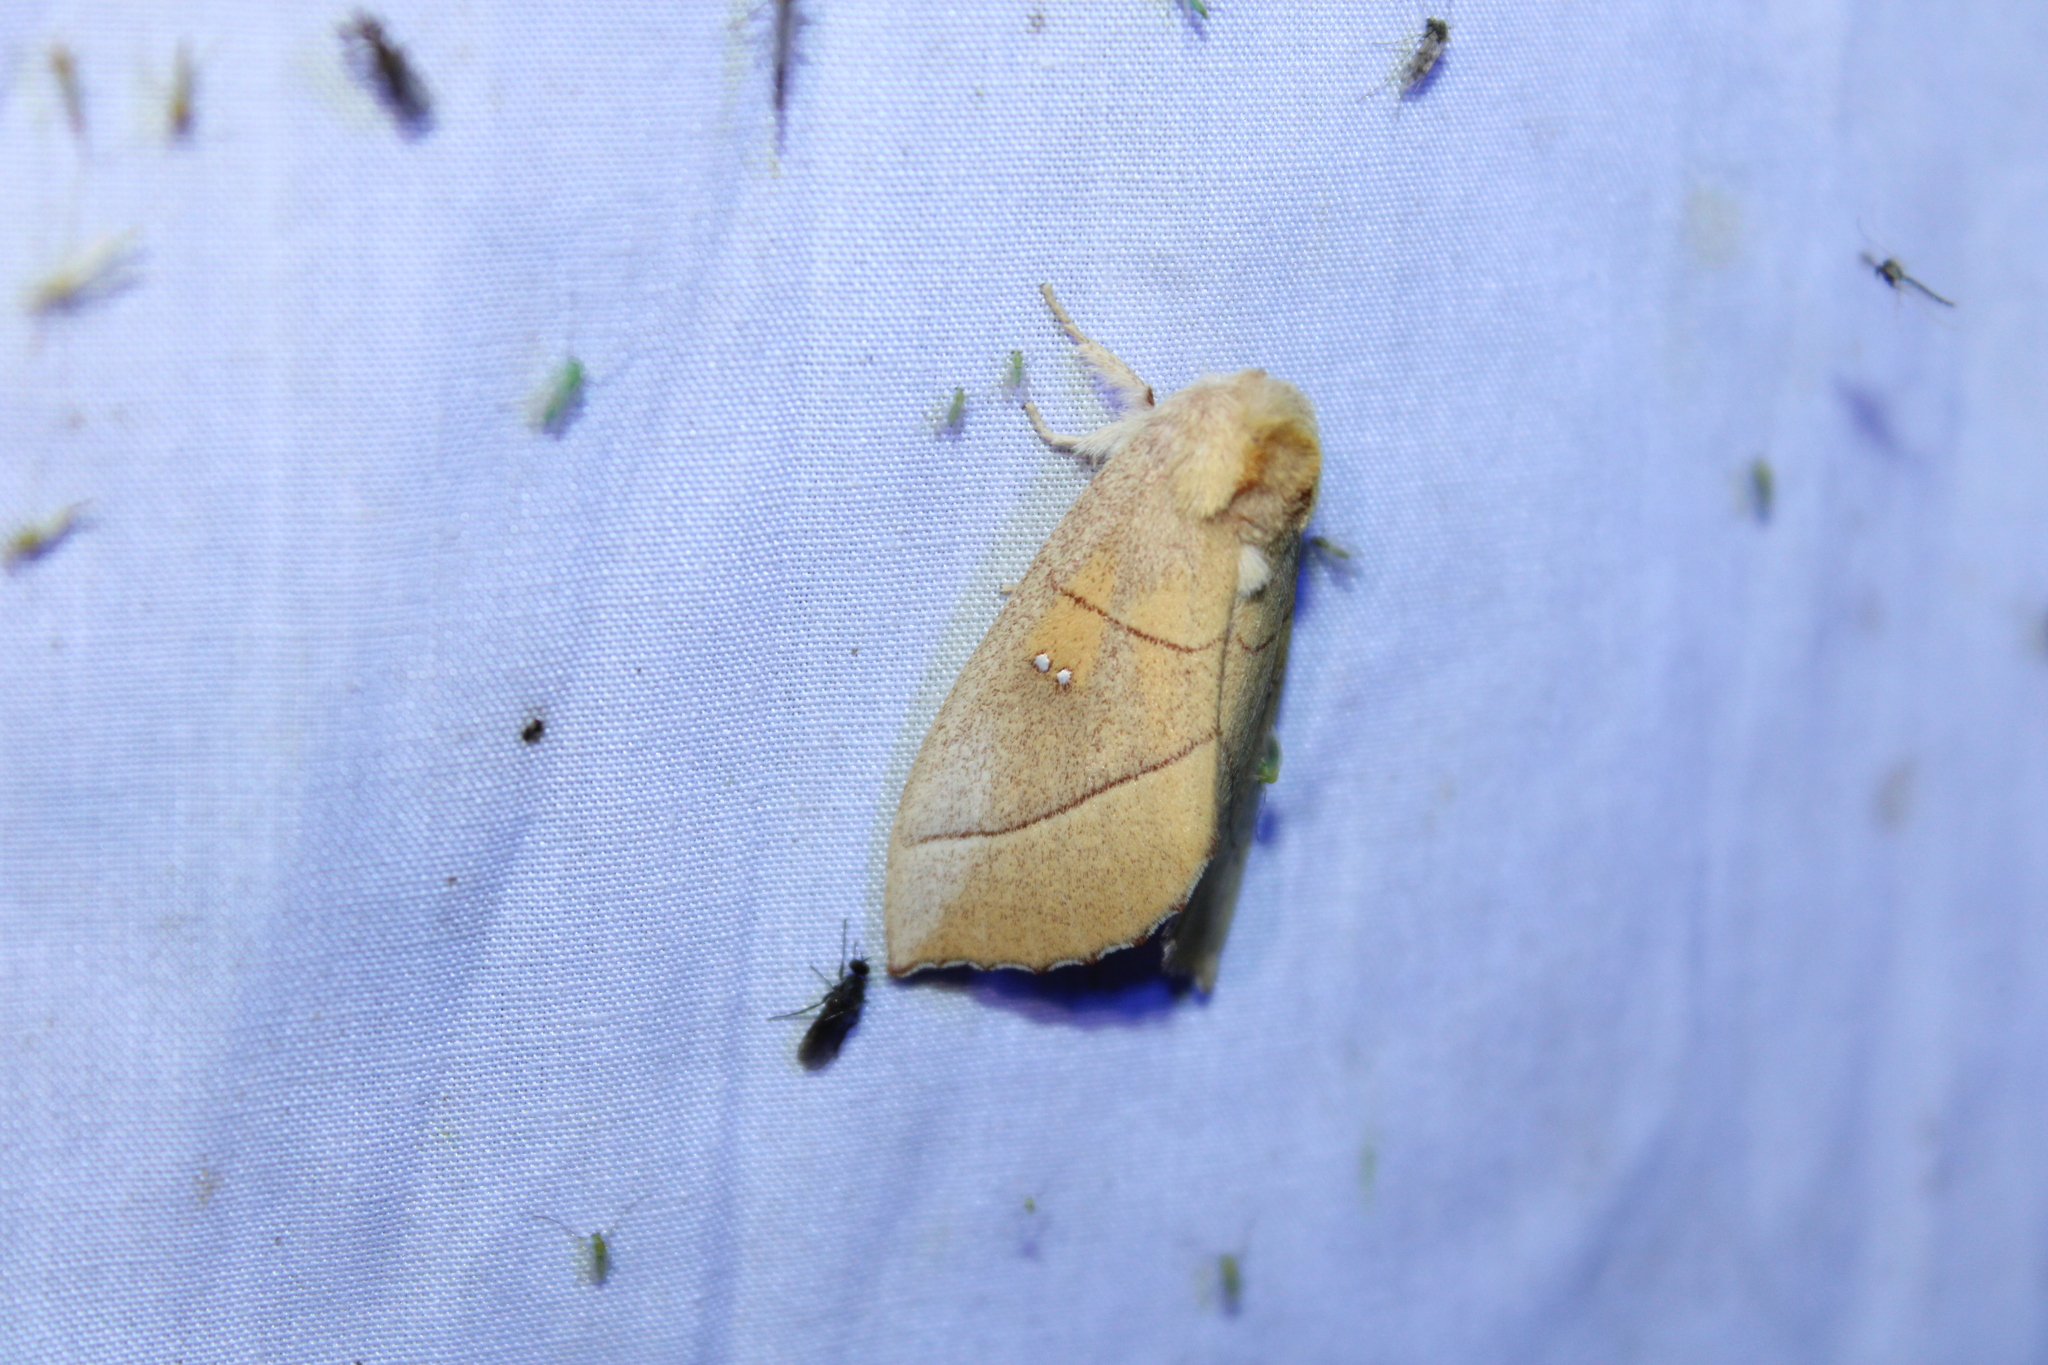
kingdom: Animalia
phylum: Arthropoda
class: Insecta
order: Lepidoptera
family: Notodontidae
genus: Nadata
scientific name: Nadata gibbosa
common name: White-dotted prominent
